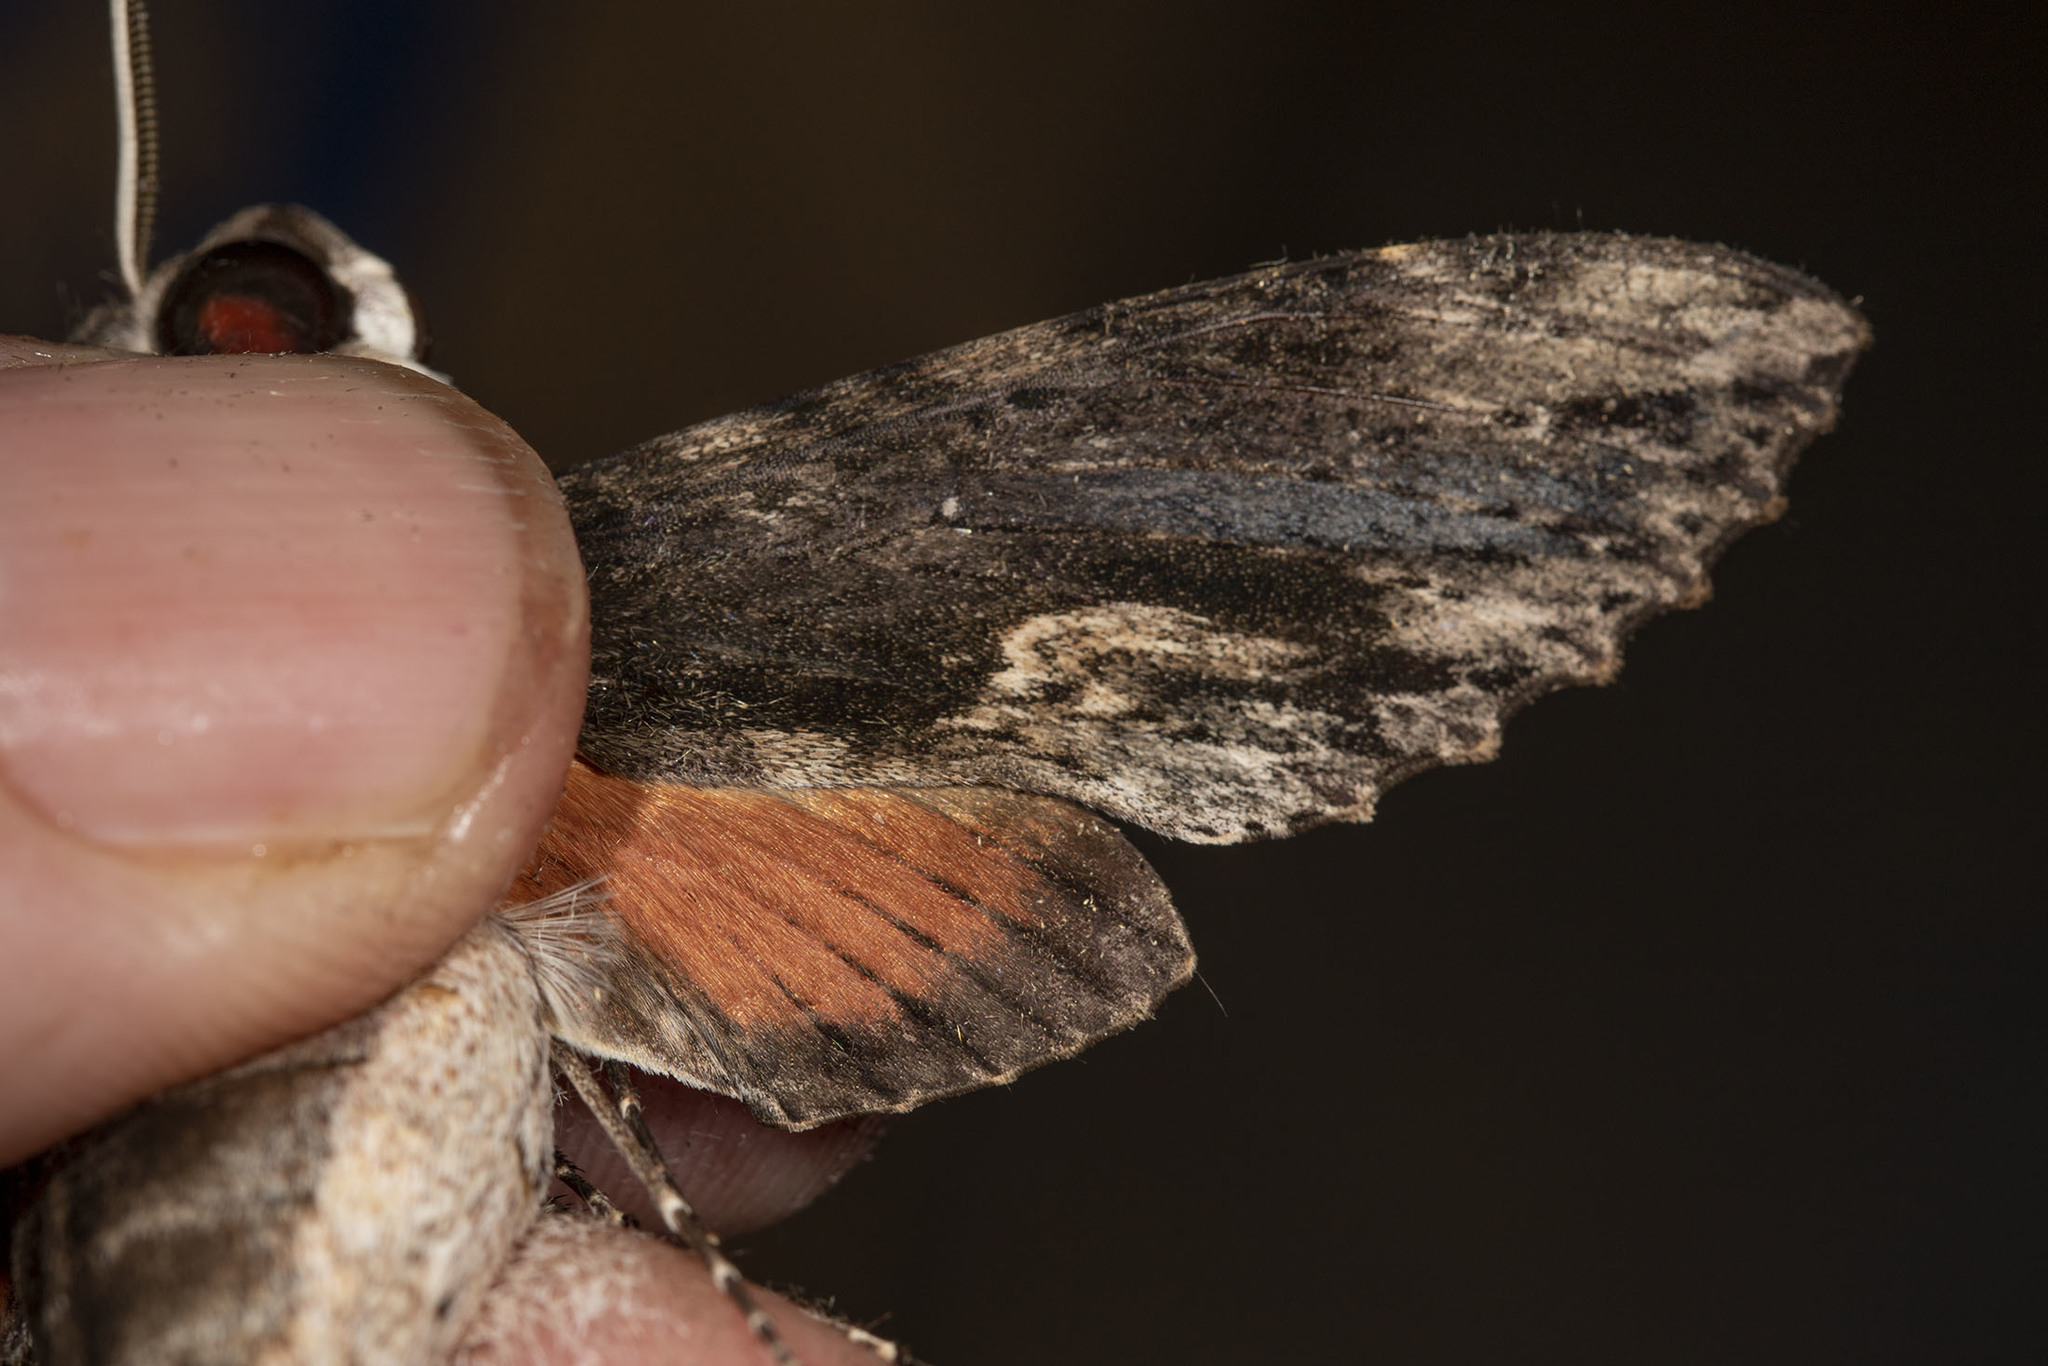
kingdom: Animalia
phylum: Arthropoda
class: Insecta
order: Lepidoptera
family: Sphingidae
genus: Erinnyis
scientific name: Erinnyis oenotrus
